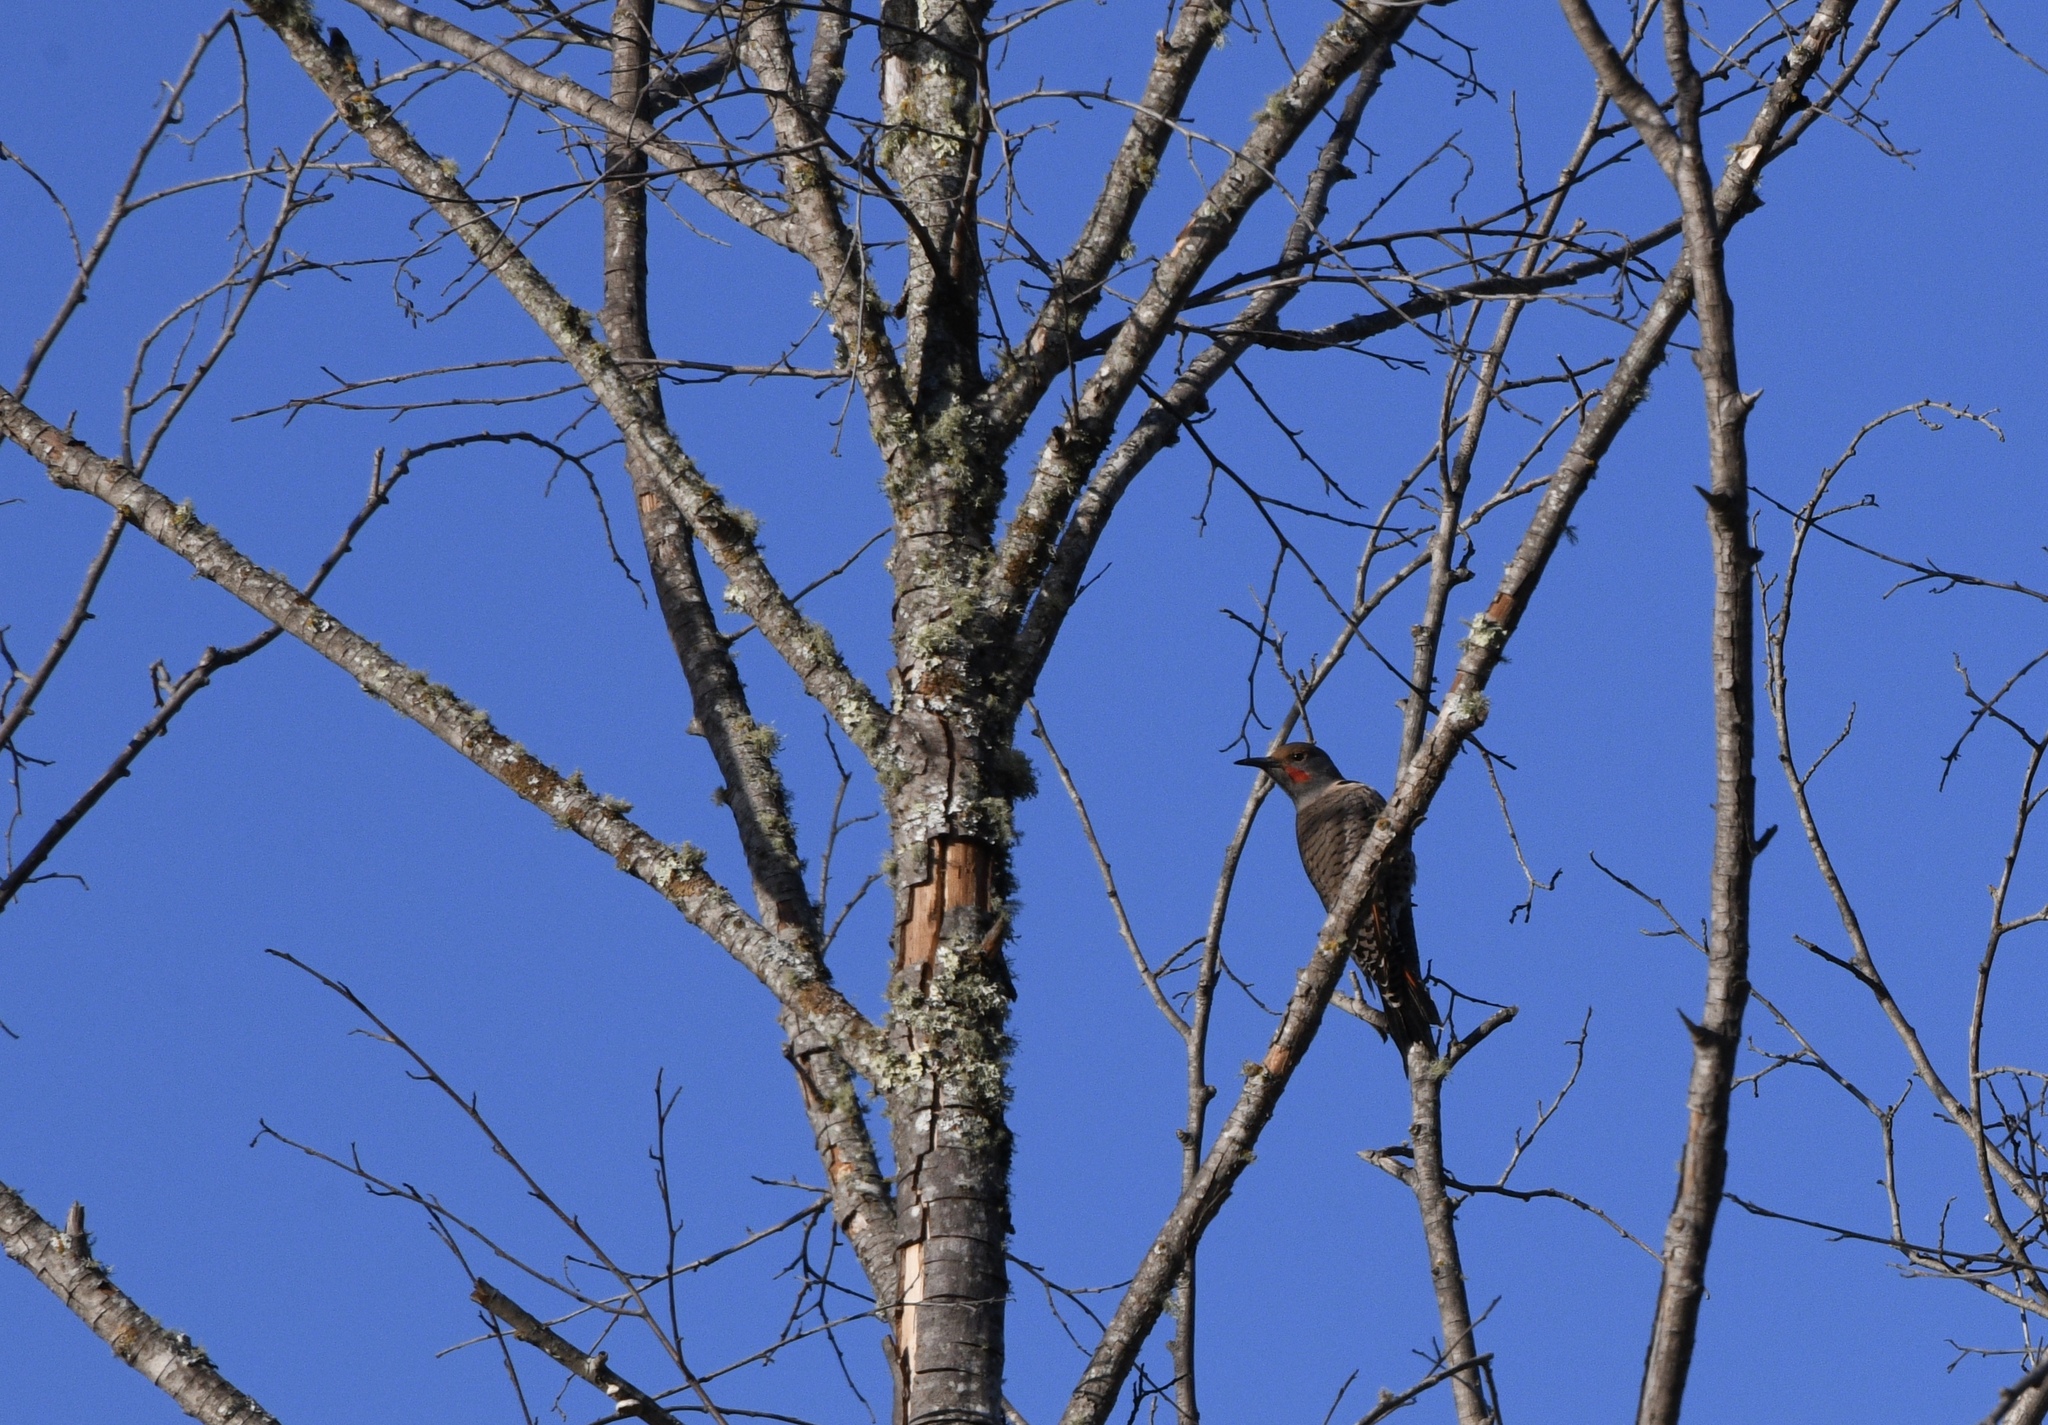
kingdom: Animalia
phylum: Chordata
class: Aves
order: Piciformes
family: Picidae
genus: Colaptes
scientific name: Colaptes auratus
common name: Northern flicker
